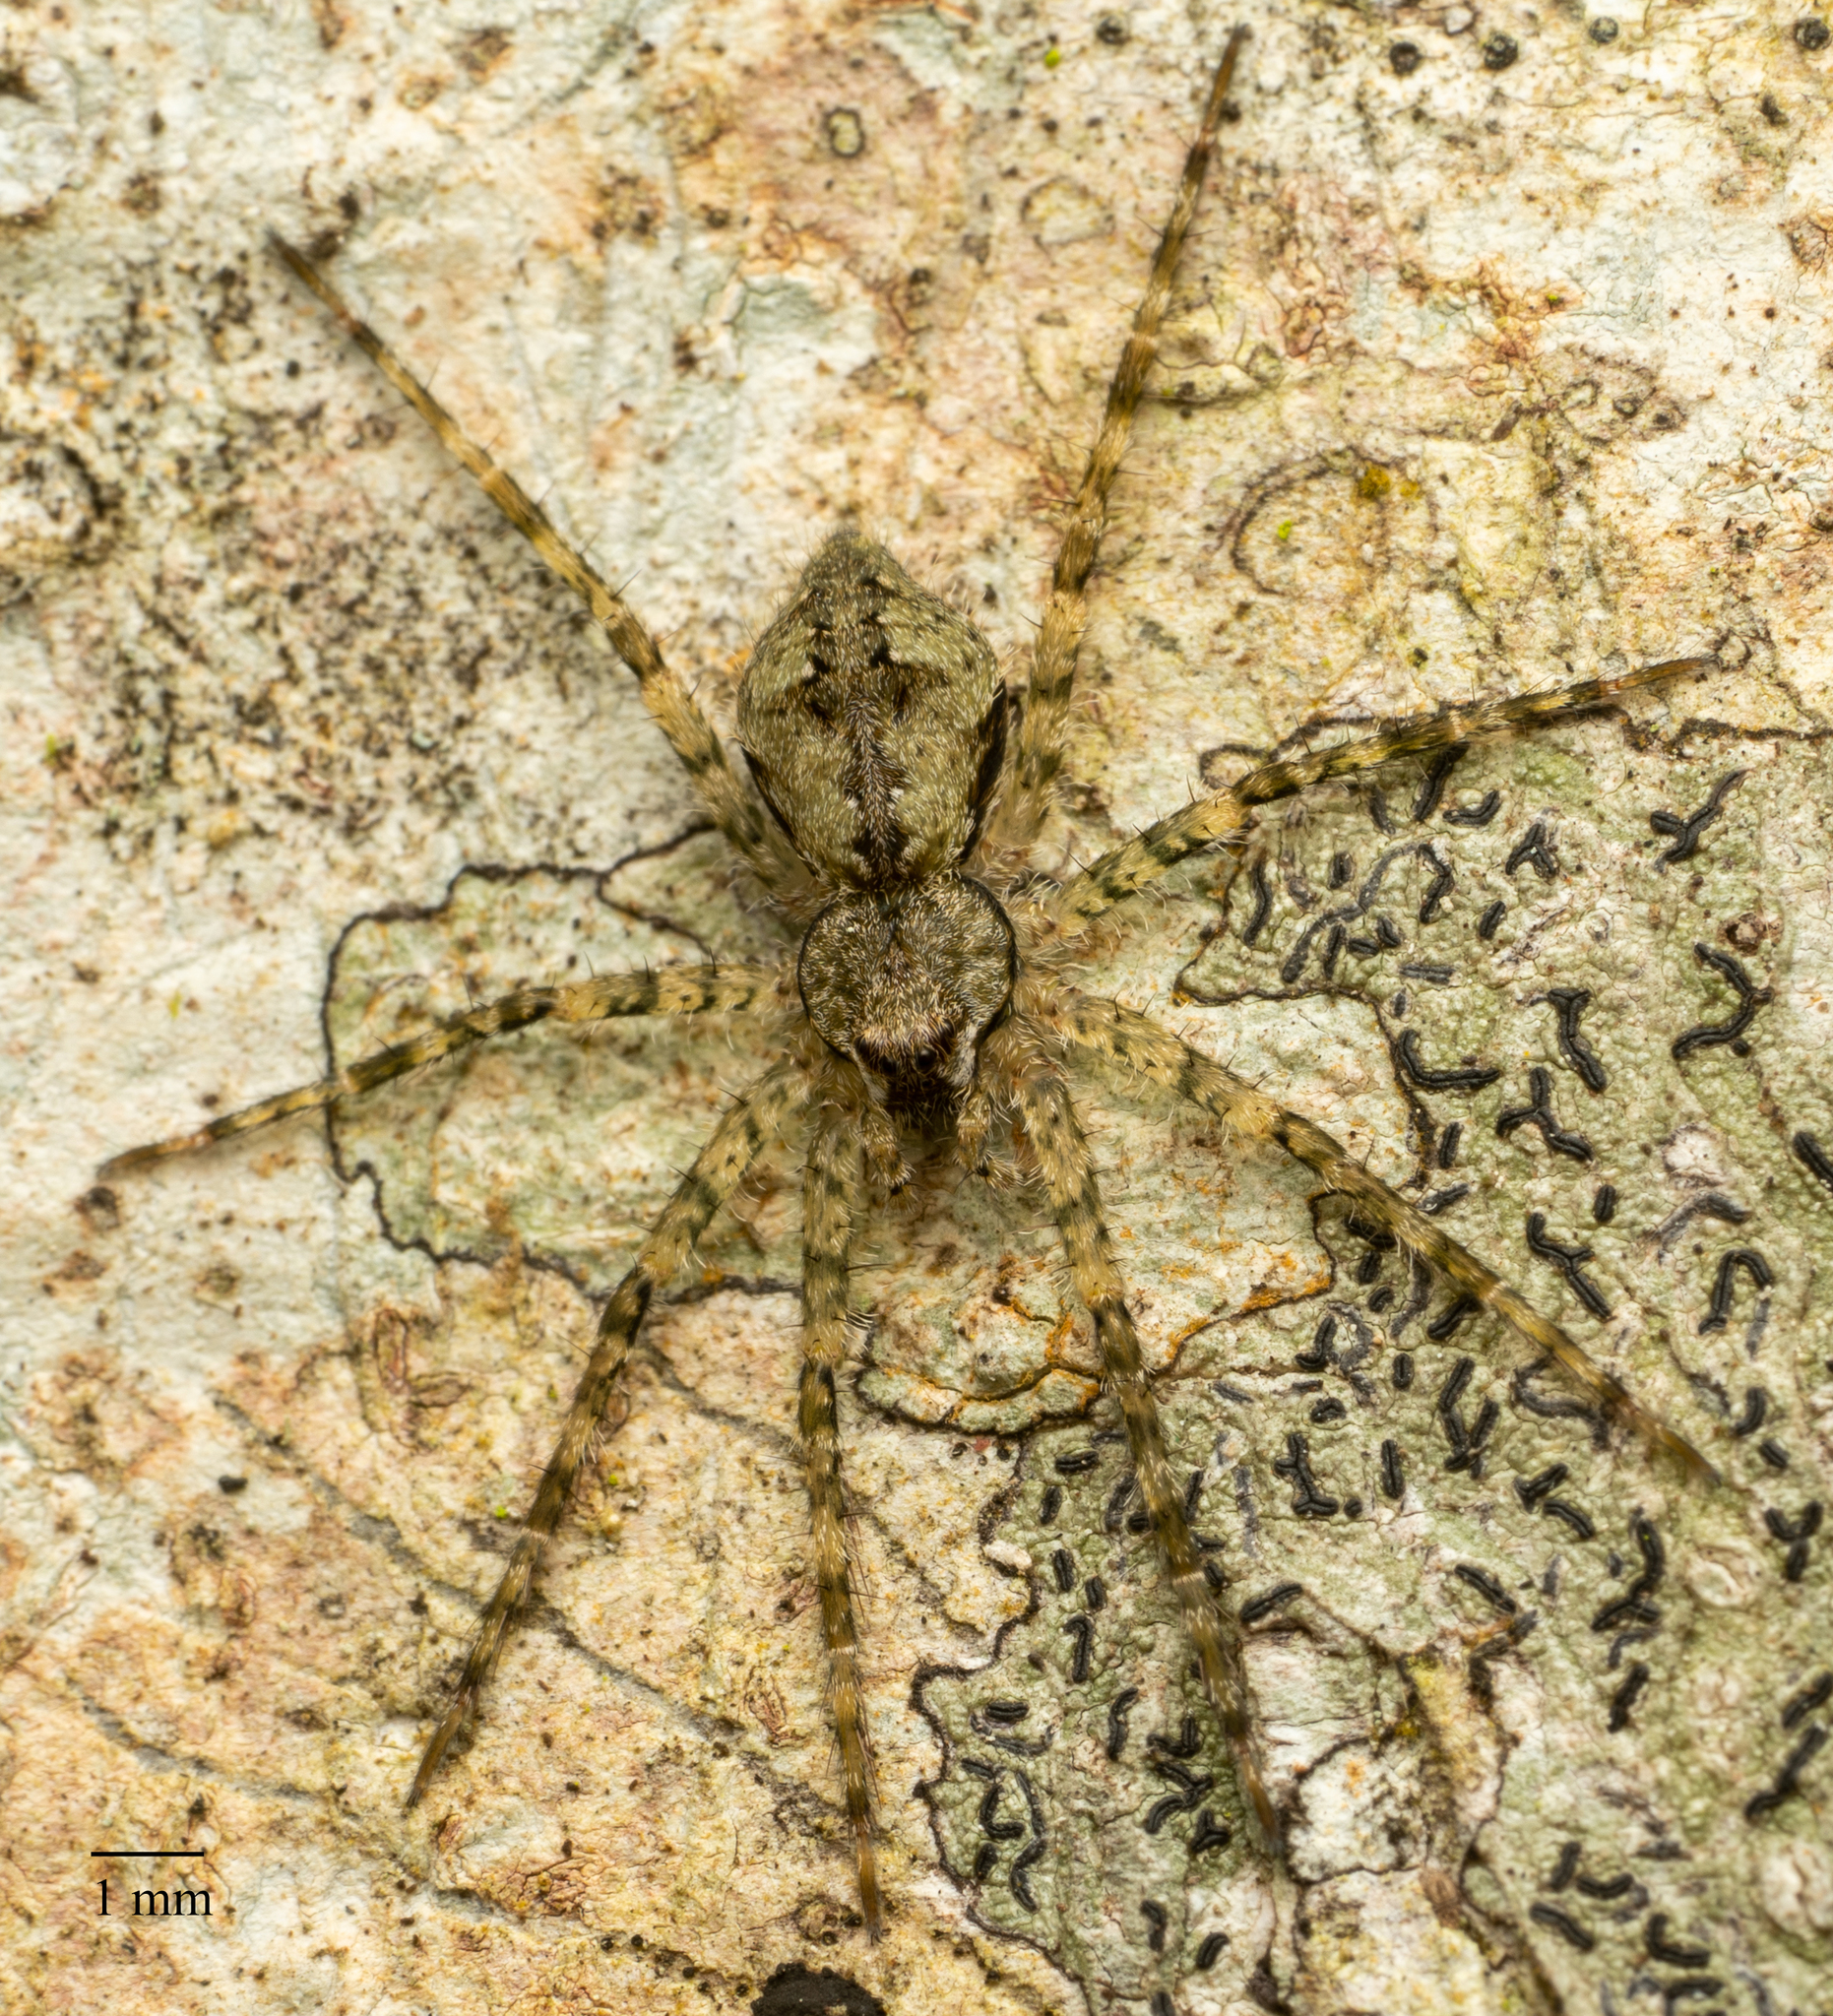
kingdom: Animalia
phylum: Arthropoda
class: Arachnida
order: Araneae
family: Pisauridae
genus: Dolomedes
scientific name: Dolomedes albineus
